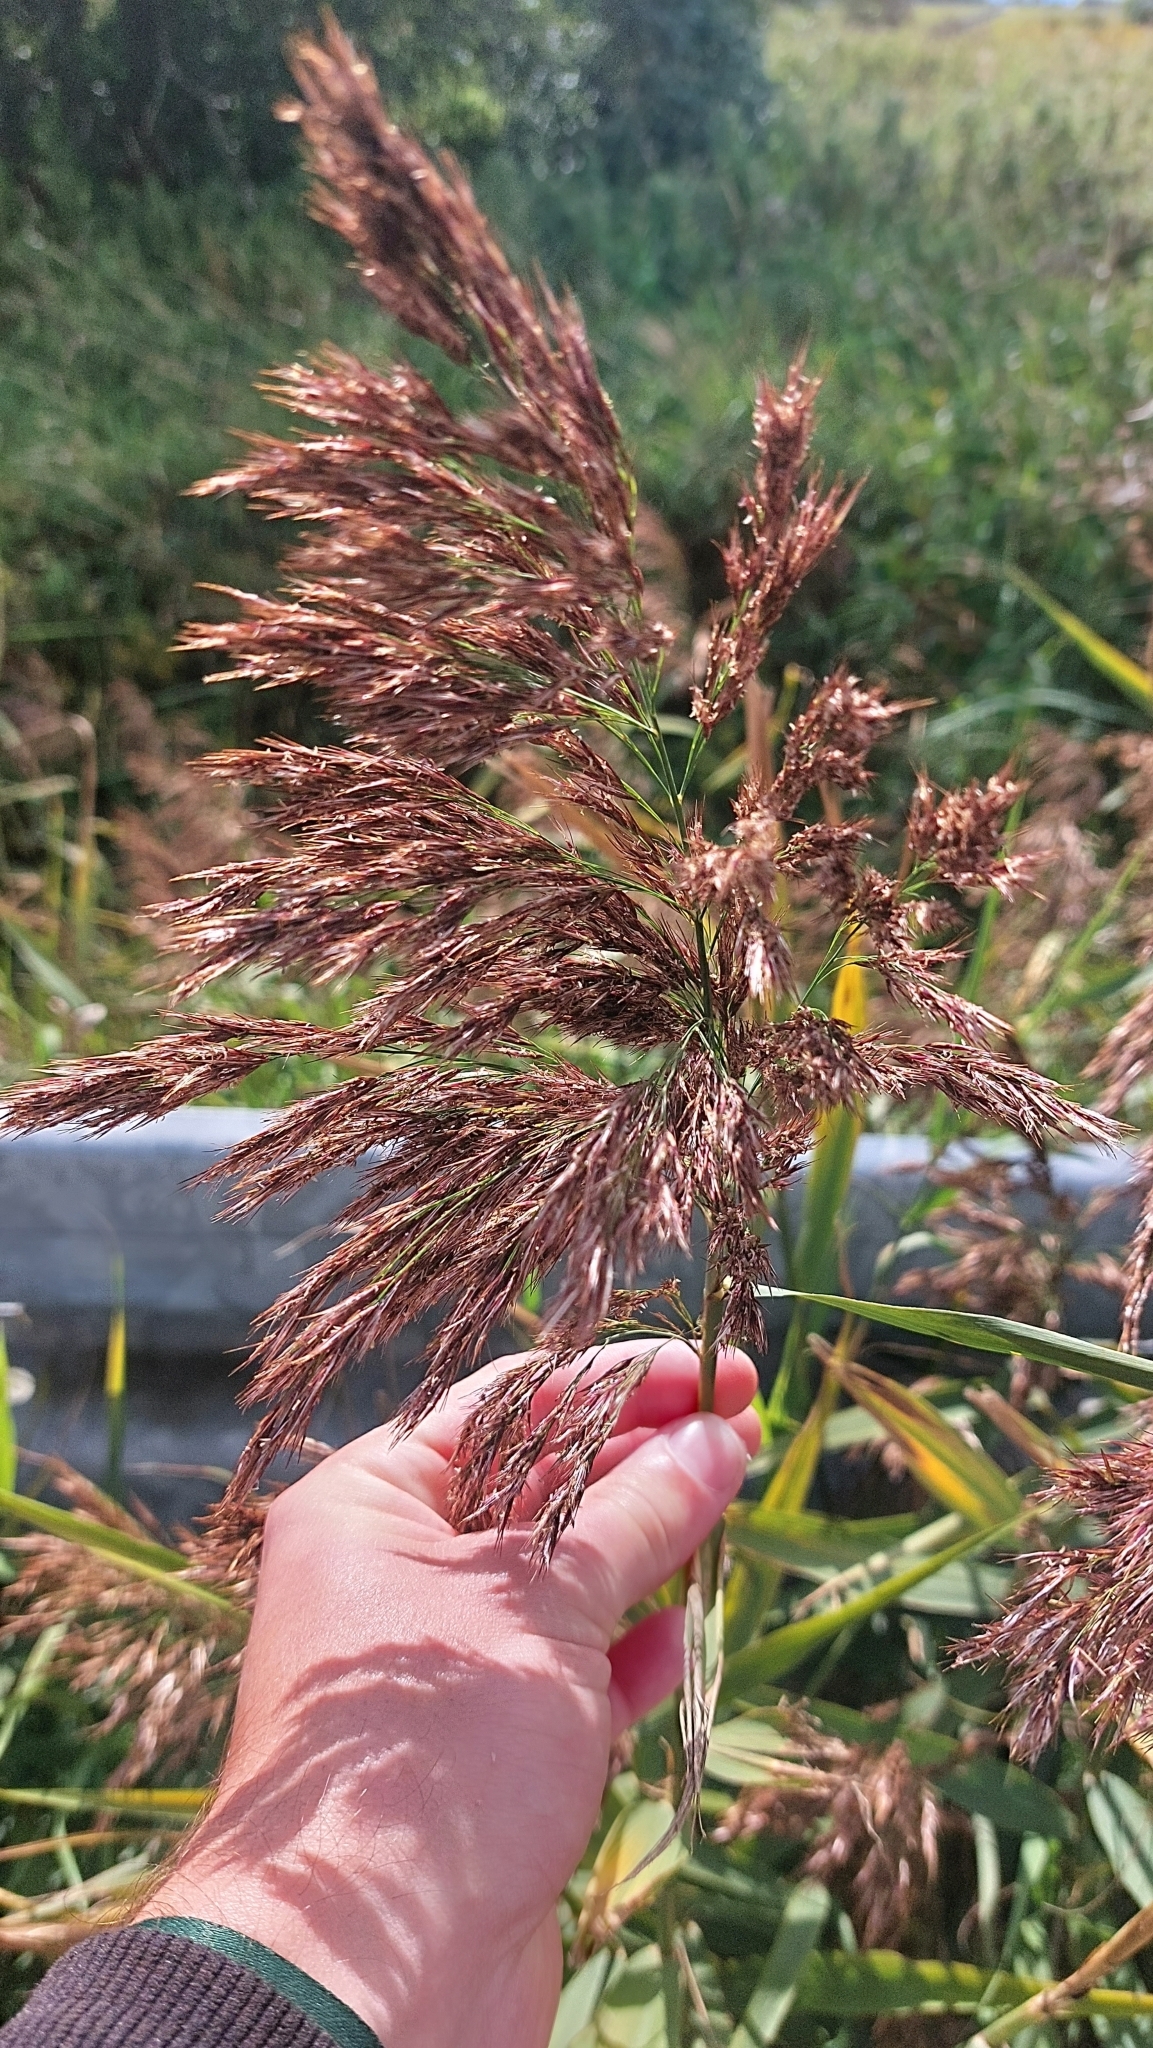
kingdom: Plantae
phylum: Tracheophyta
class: Liliopsida
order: Poales
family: Poaceae
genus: Phragmites
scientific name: Phragmites australis
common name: Common reed
